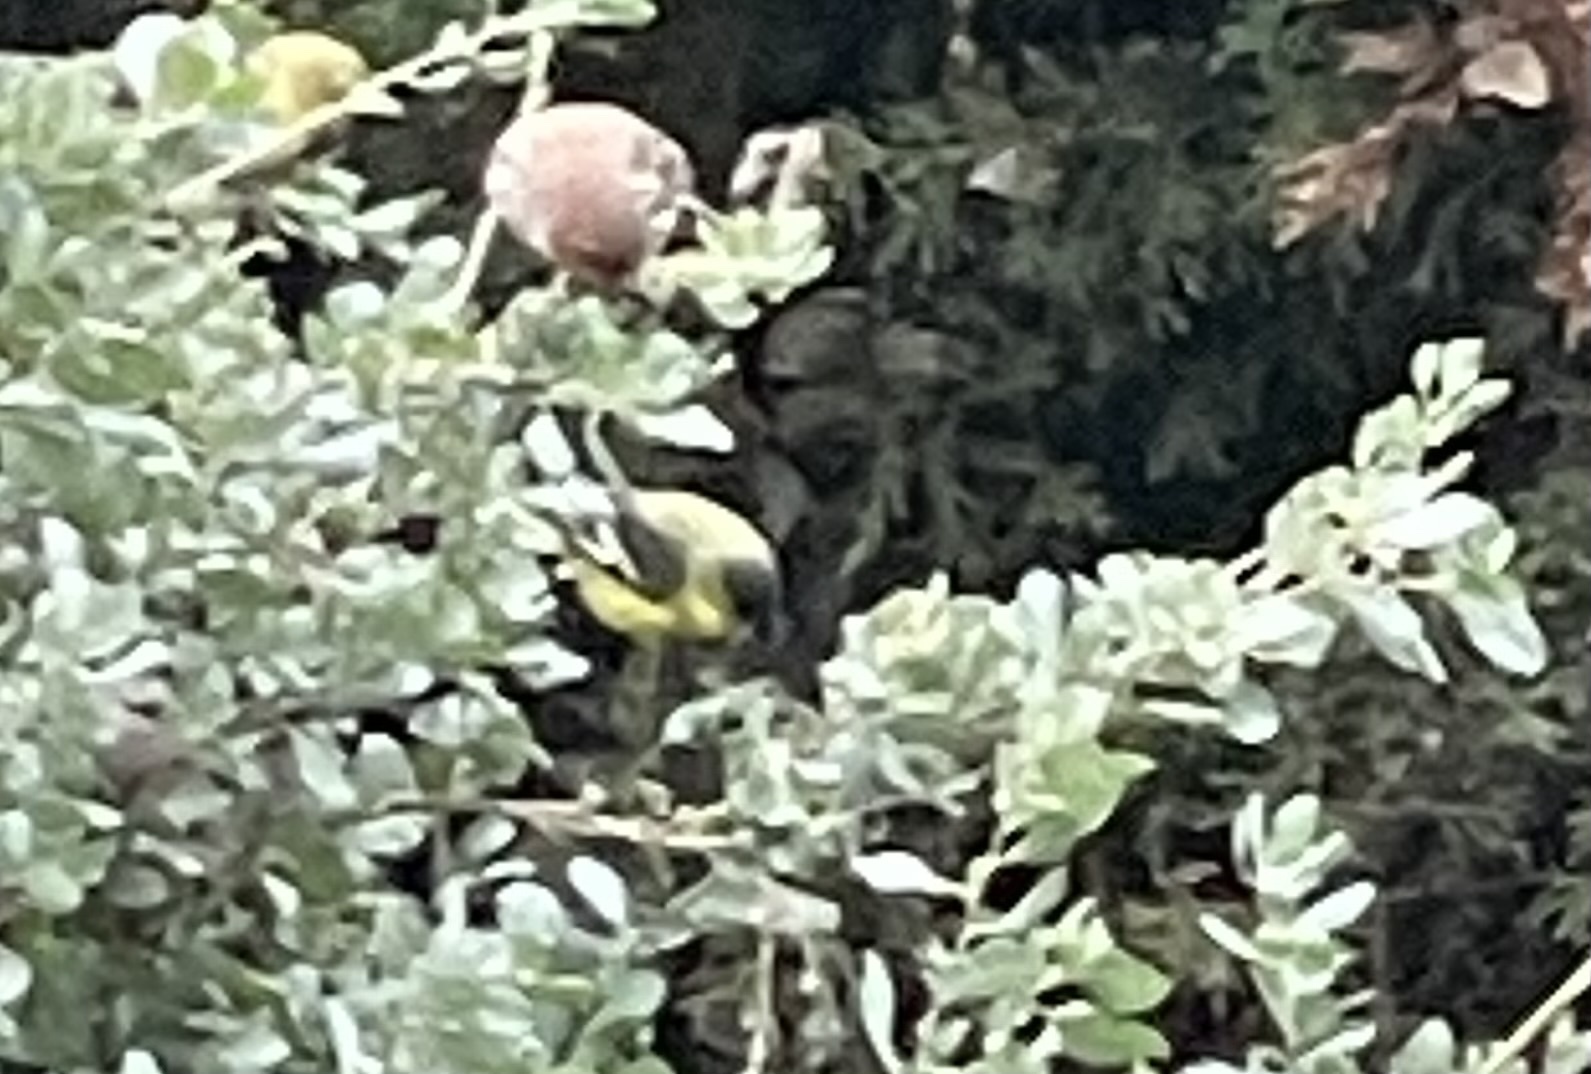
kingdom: Animalia
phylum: Chordata
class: Aves
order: Passeriformes
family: Fringillidae
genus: Spinus
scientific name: Spinus psaltria
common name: Lesser goldfinch
